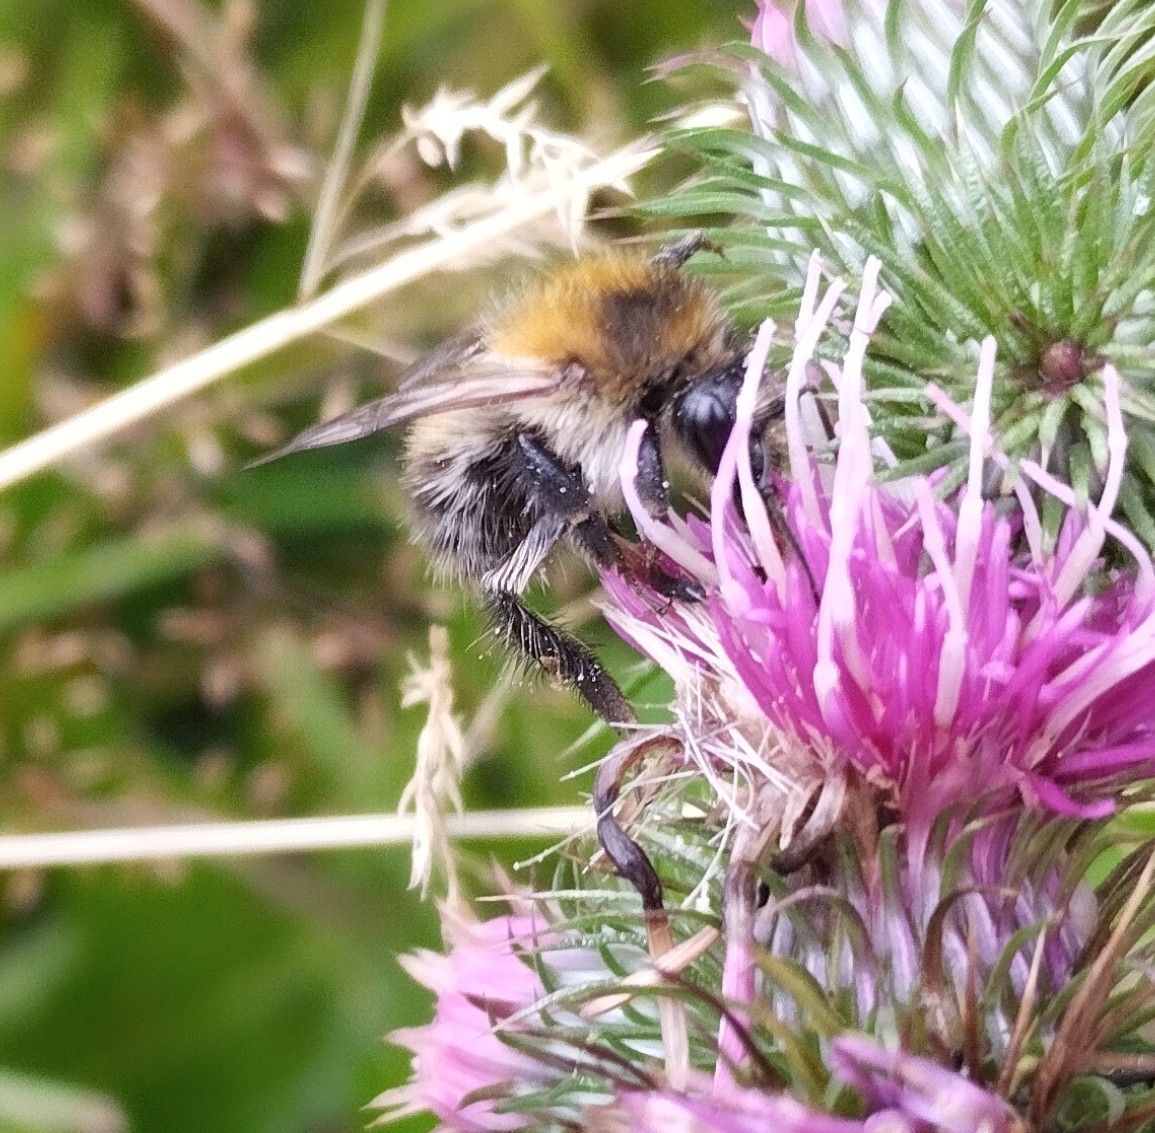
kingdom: Animalia
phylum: Arthropoda
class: Insecta
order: Hymenoptera
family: Apidae
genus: Bombus
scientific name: Bombus pascuorum
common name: Common carder bee
